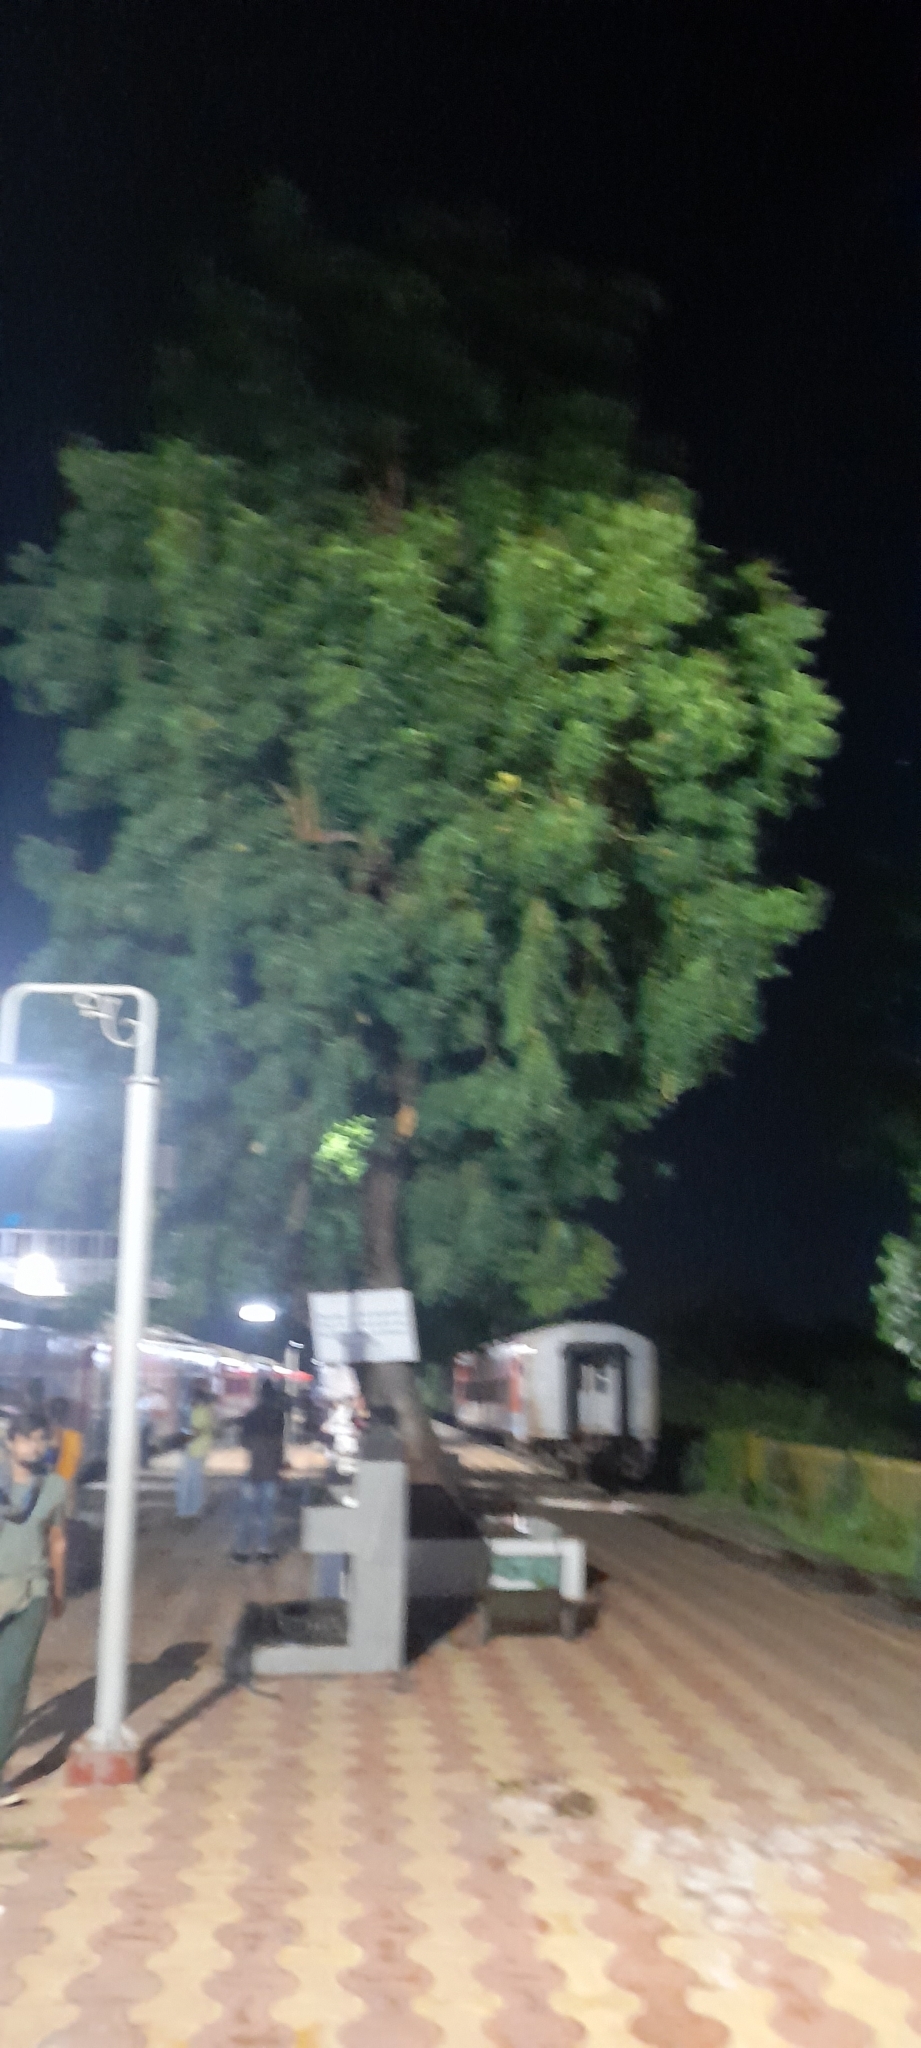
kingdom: Plantae
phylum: Tracheophyta
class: Magnoliopsida
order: Sapindales
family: Meliaceae
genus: Azadirachta
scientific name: Azadirachta indica
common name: Neem
